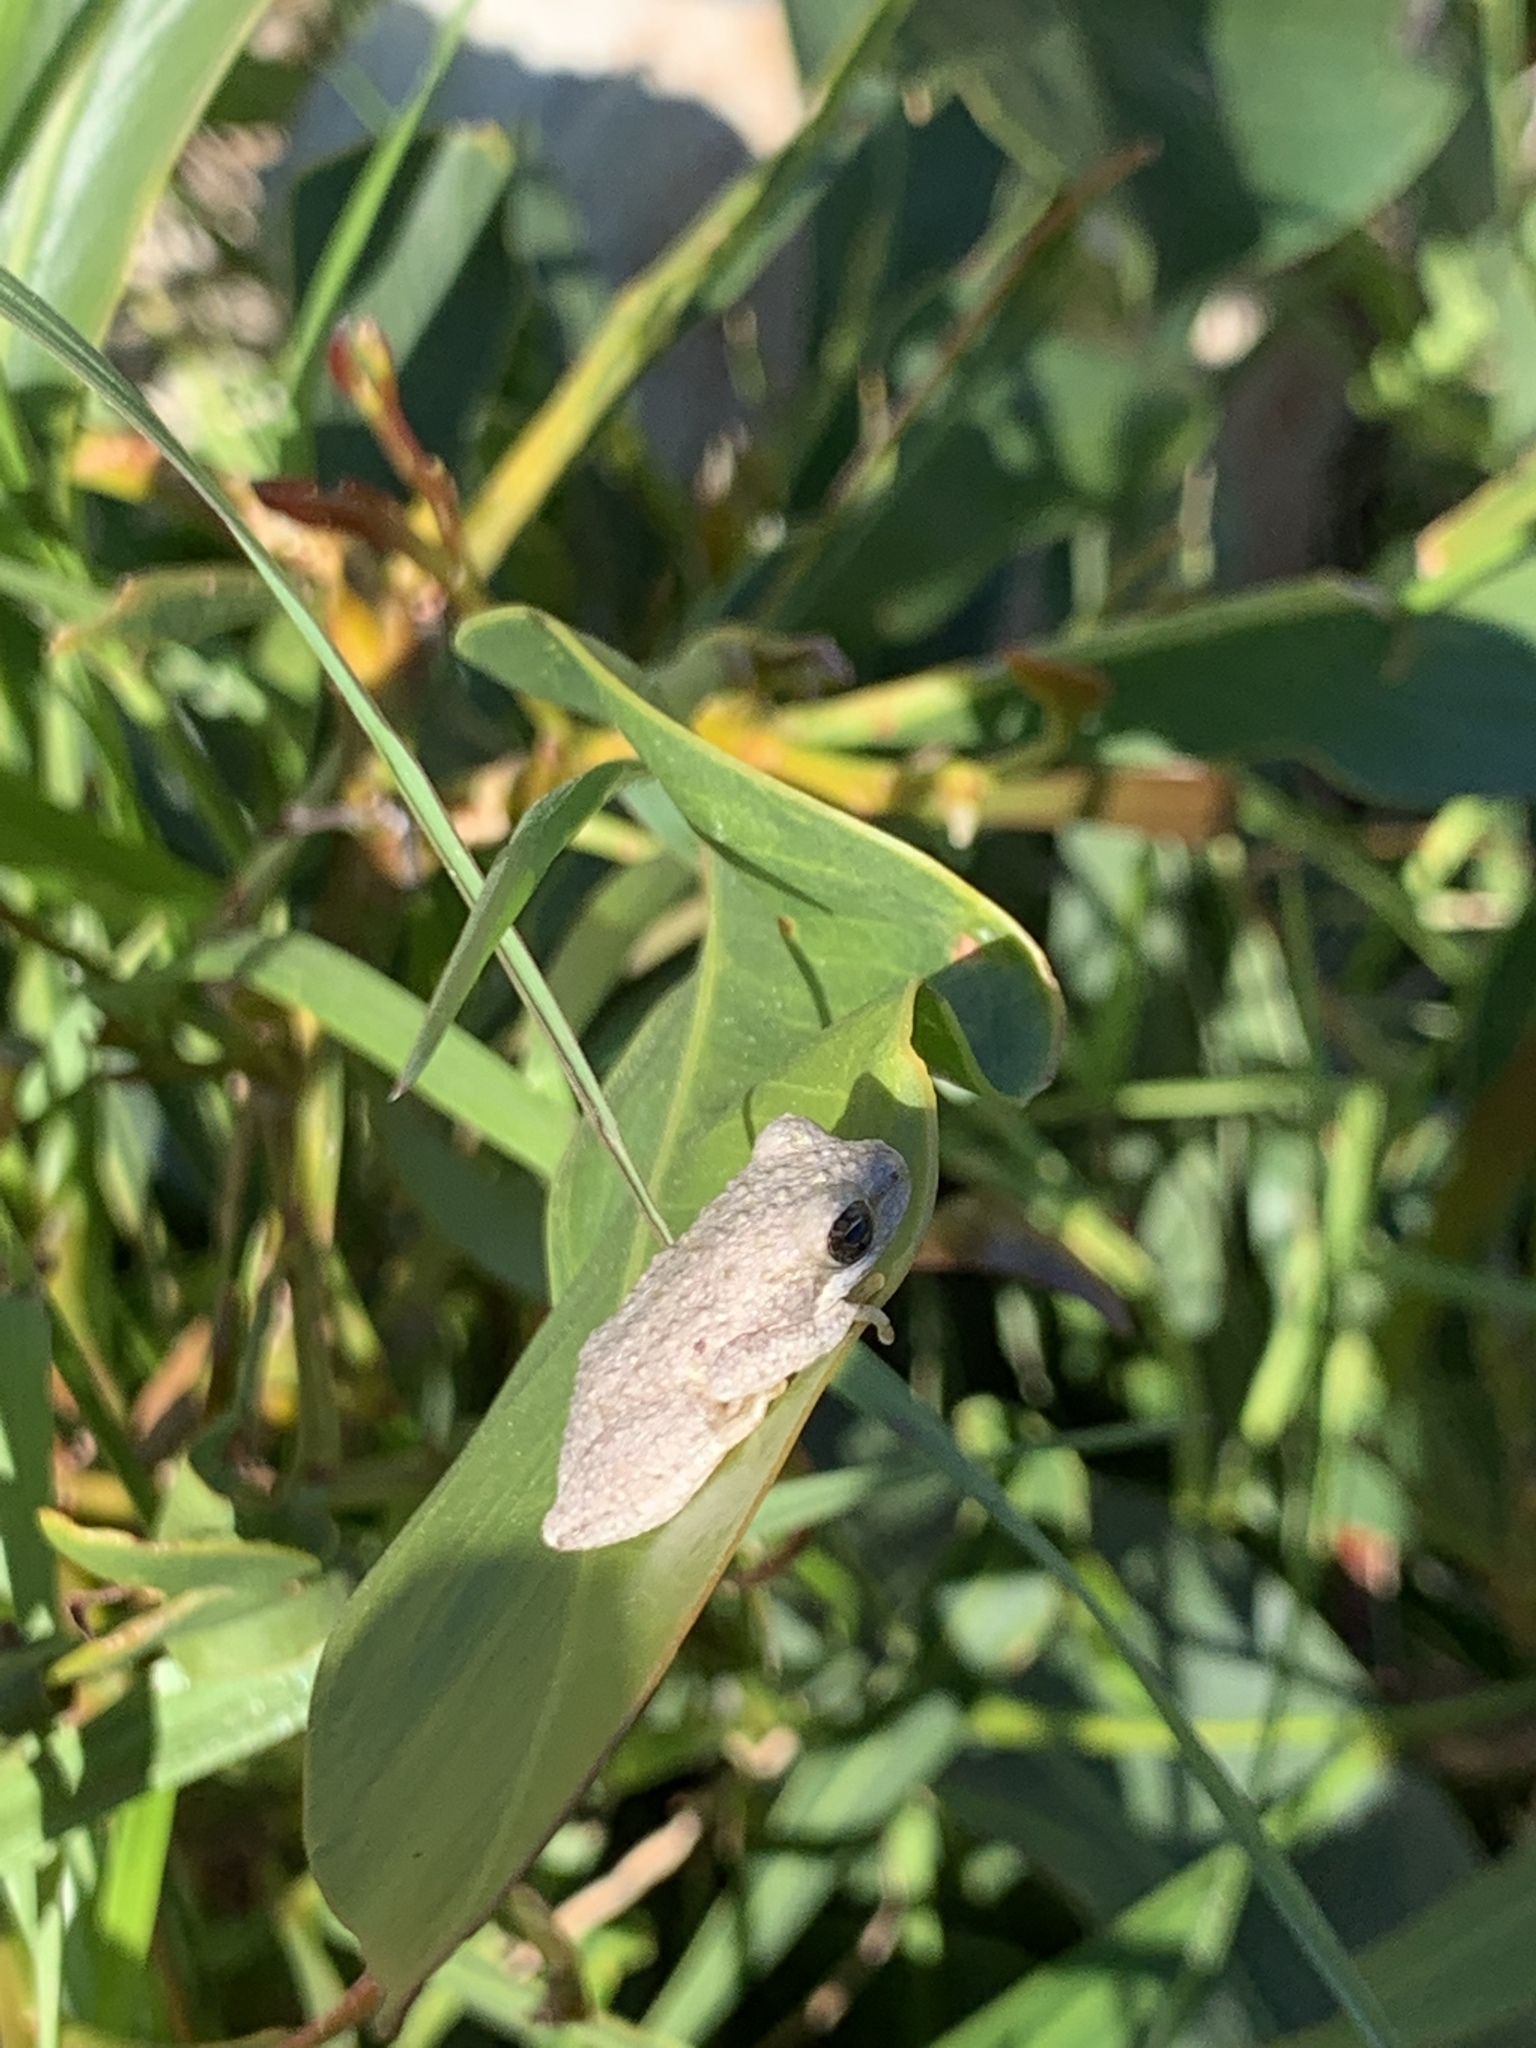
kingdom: Animalia
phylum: Chordata
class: Amphibia
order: Anura
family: Hyperoliidae
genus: Hyperolius
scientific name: Hyperolius marmoratus
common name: Painted reed frog
